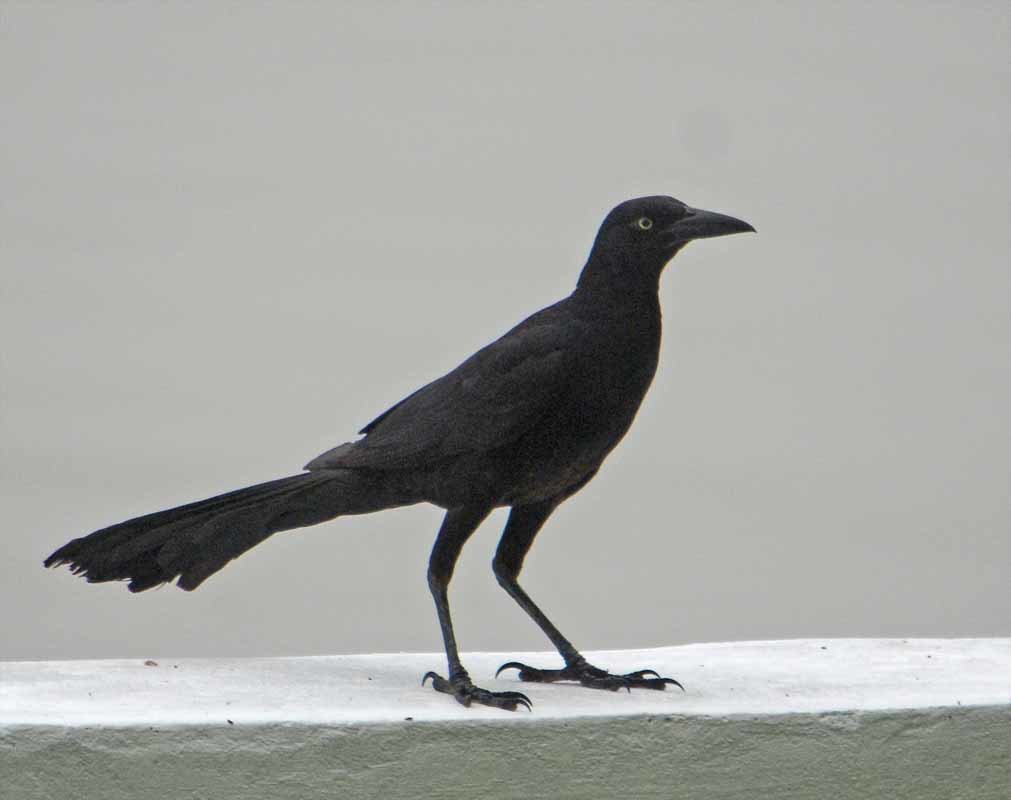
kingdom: Animalia
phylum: Chordata
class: Aves
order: Passeriformes
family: Icteridae
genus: Quiscalus
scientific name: Quiscalus mexicanus
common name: Great-tailed grackle
